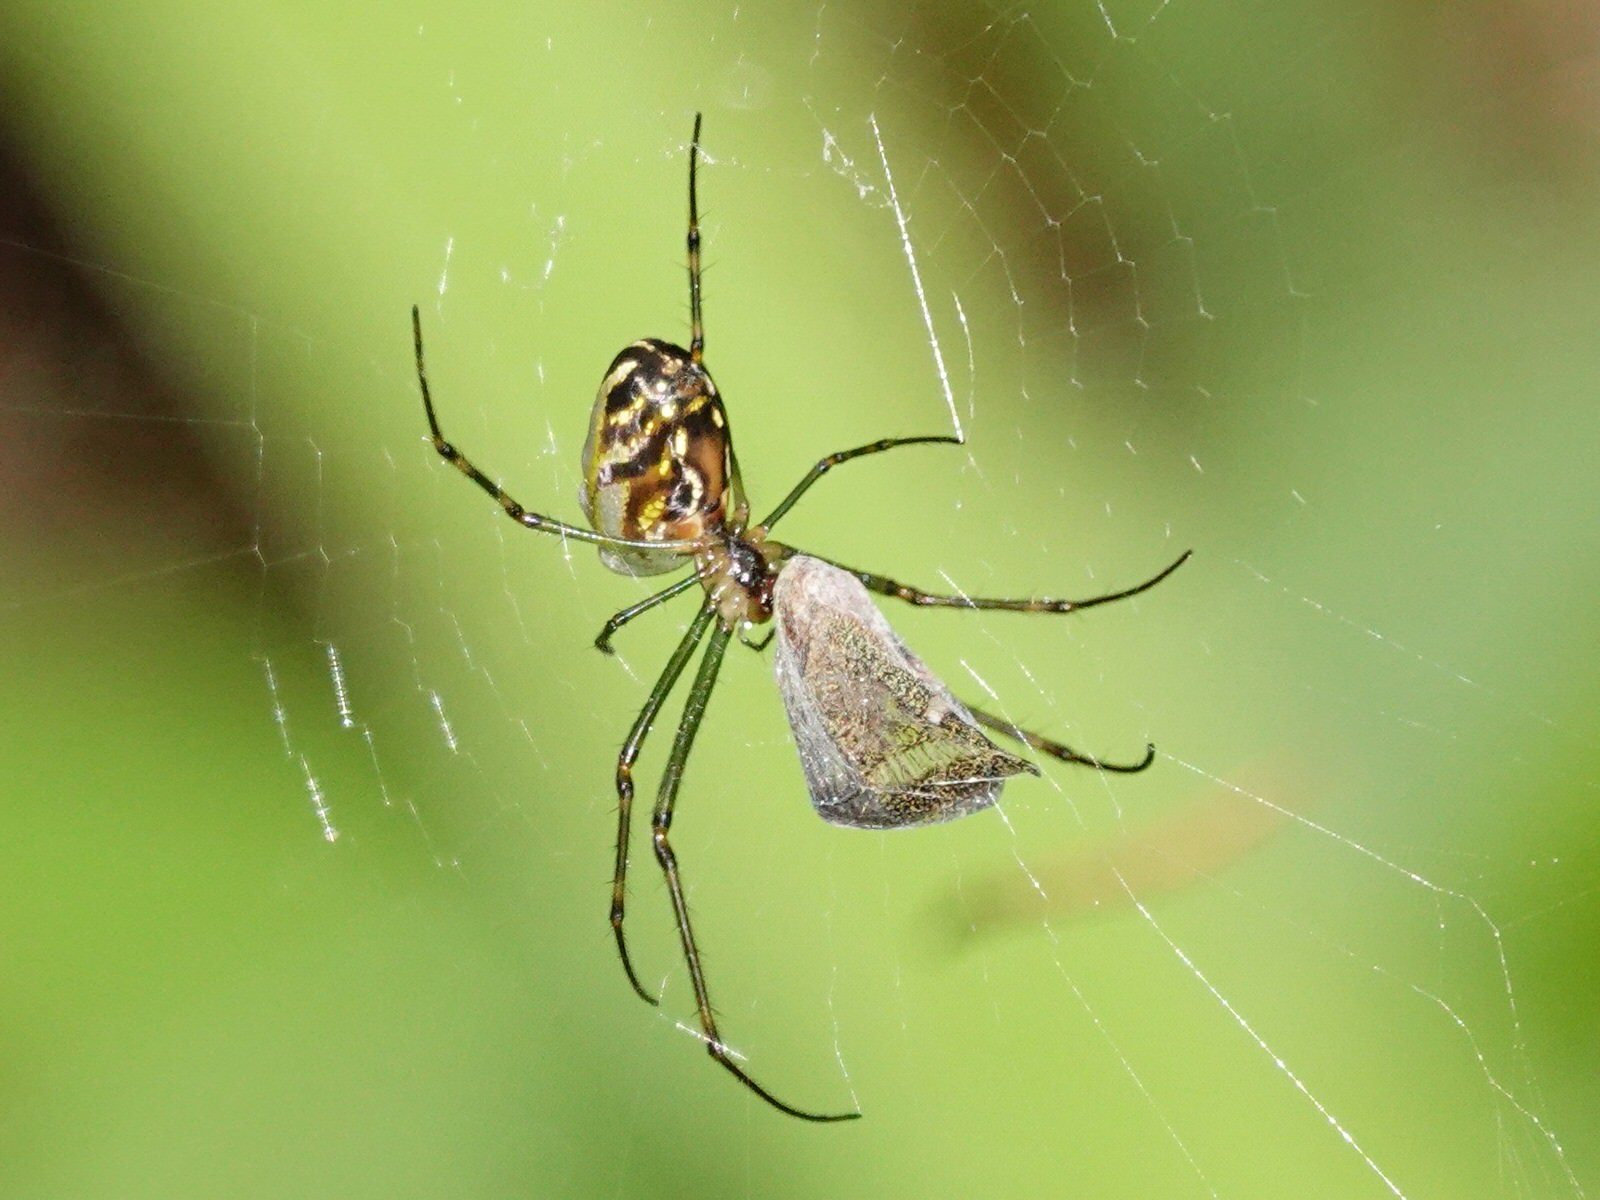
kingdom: Animalia
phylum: Arthropoda
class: Arachnida
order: Araneae
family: Tetragnathidae
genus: Leucauge
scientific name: Leucauge dromedaria
